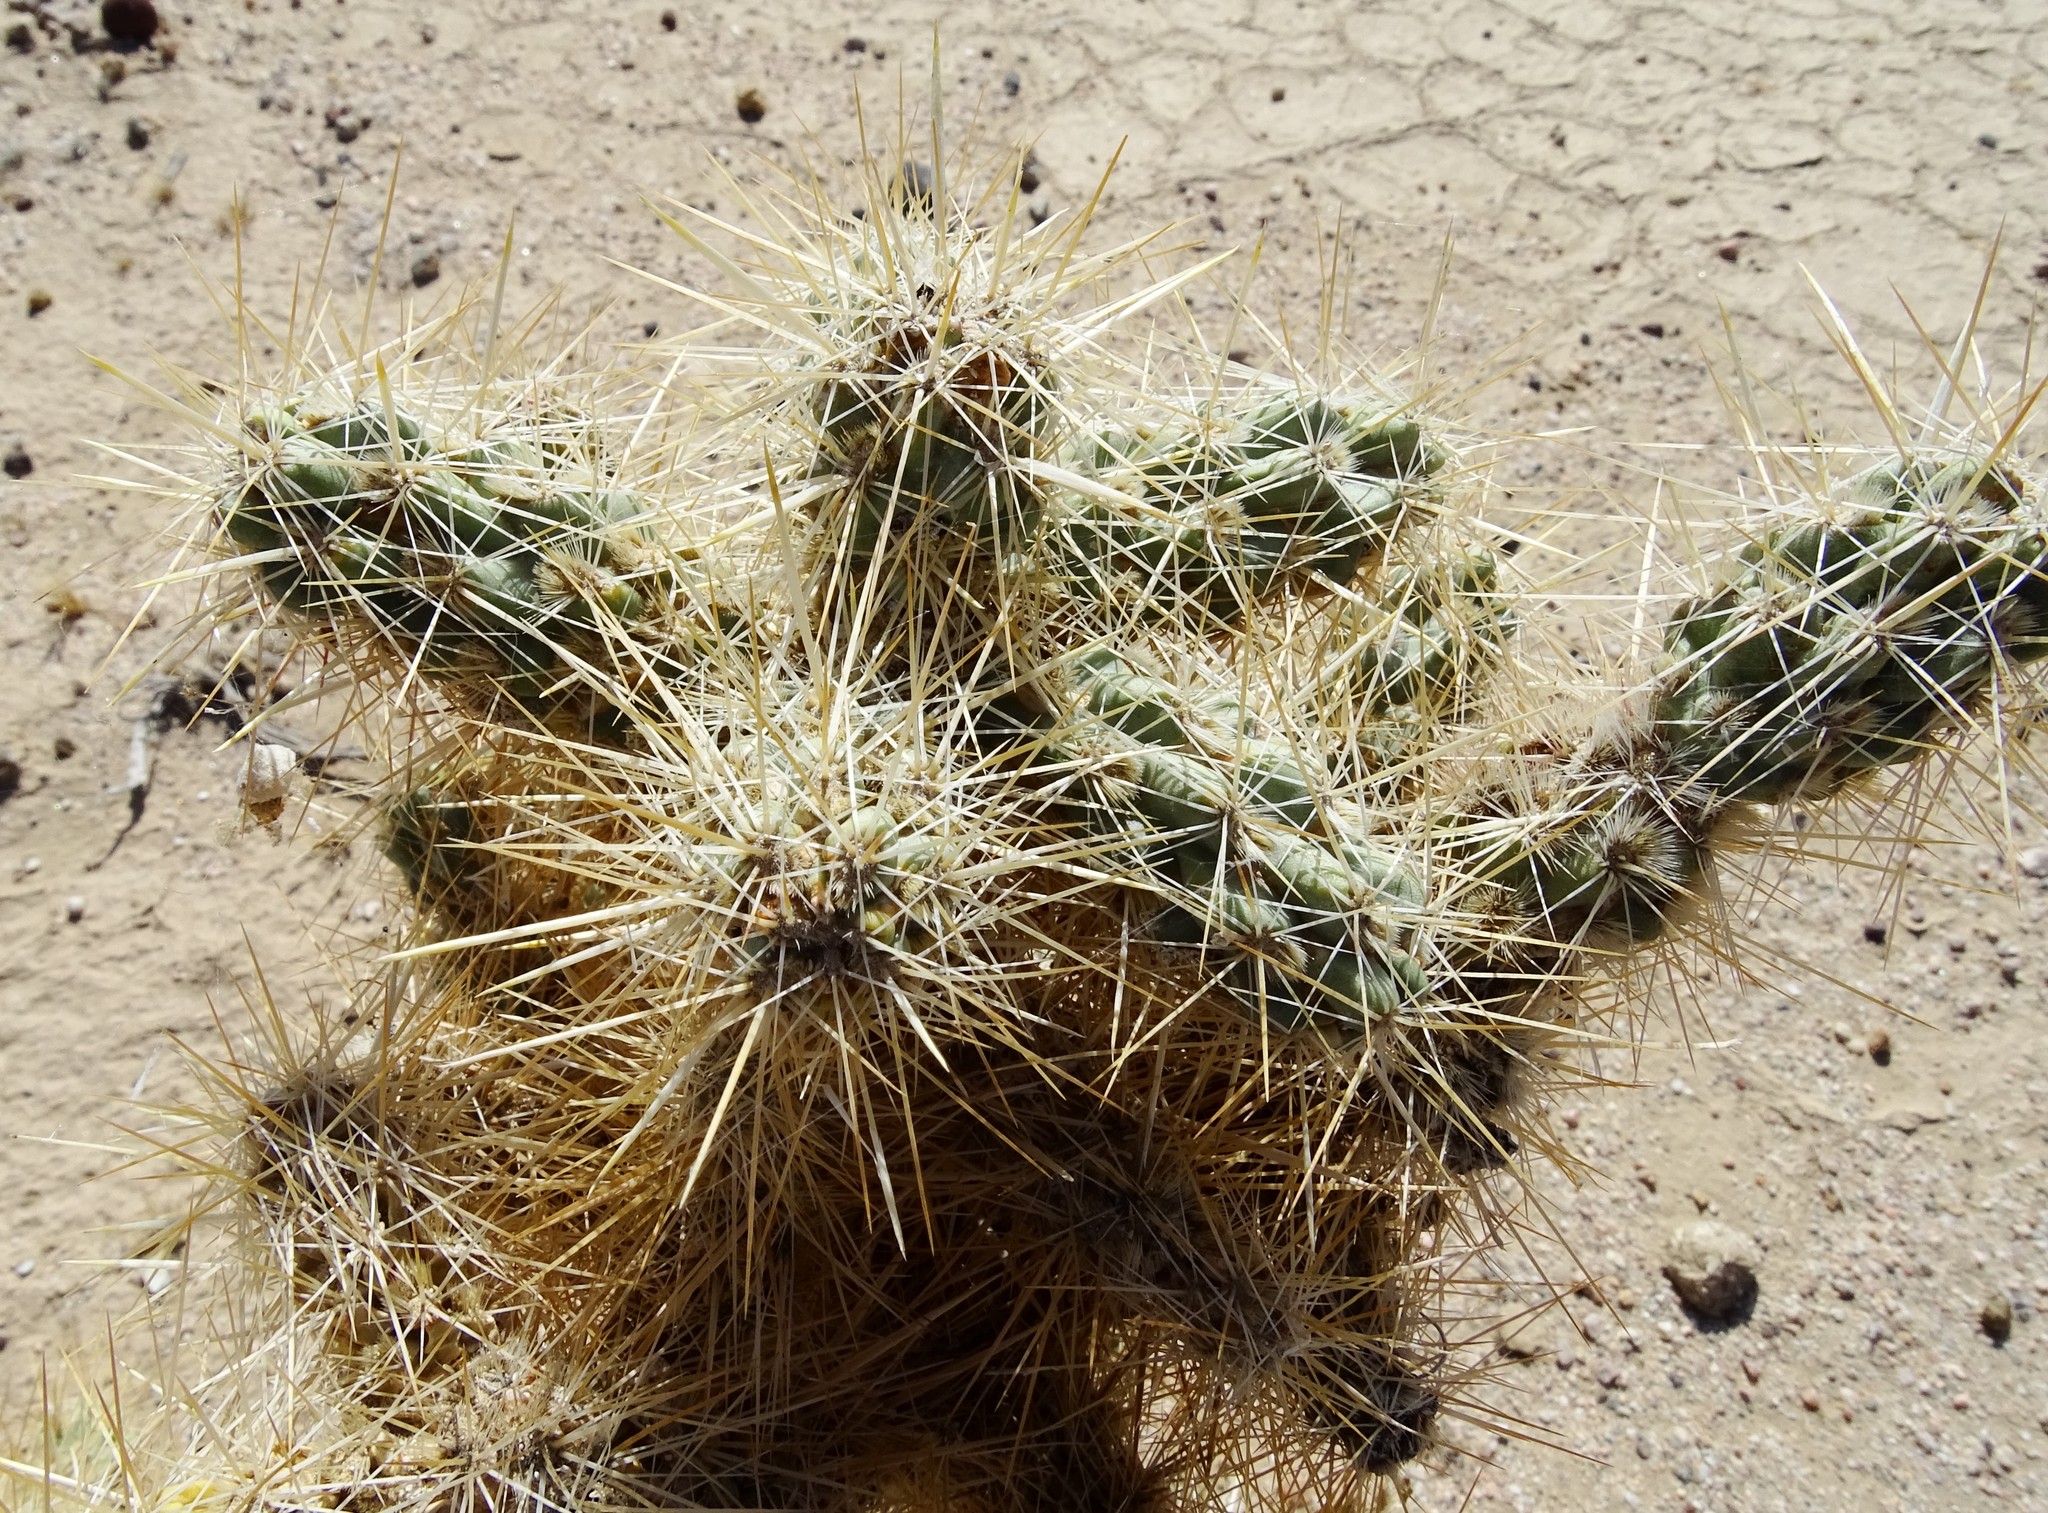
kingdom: Plantae
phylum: Tracheophyta
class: Magnoliopsida
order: Caryophyllales
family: Cactaceae
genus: Cylindropuntia
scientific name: Cylindropuntia echinocarpa
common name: Ground cholla
